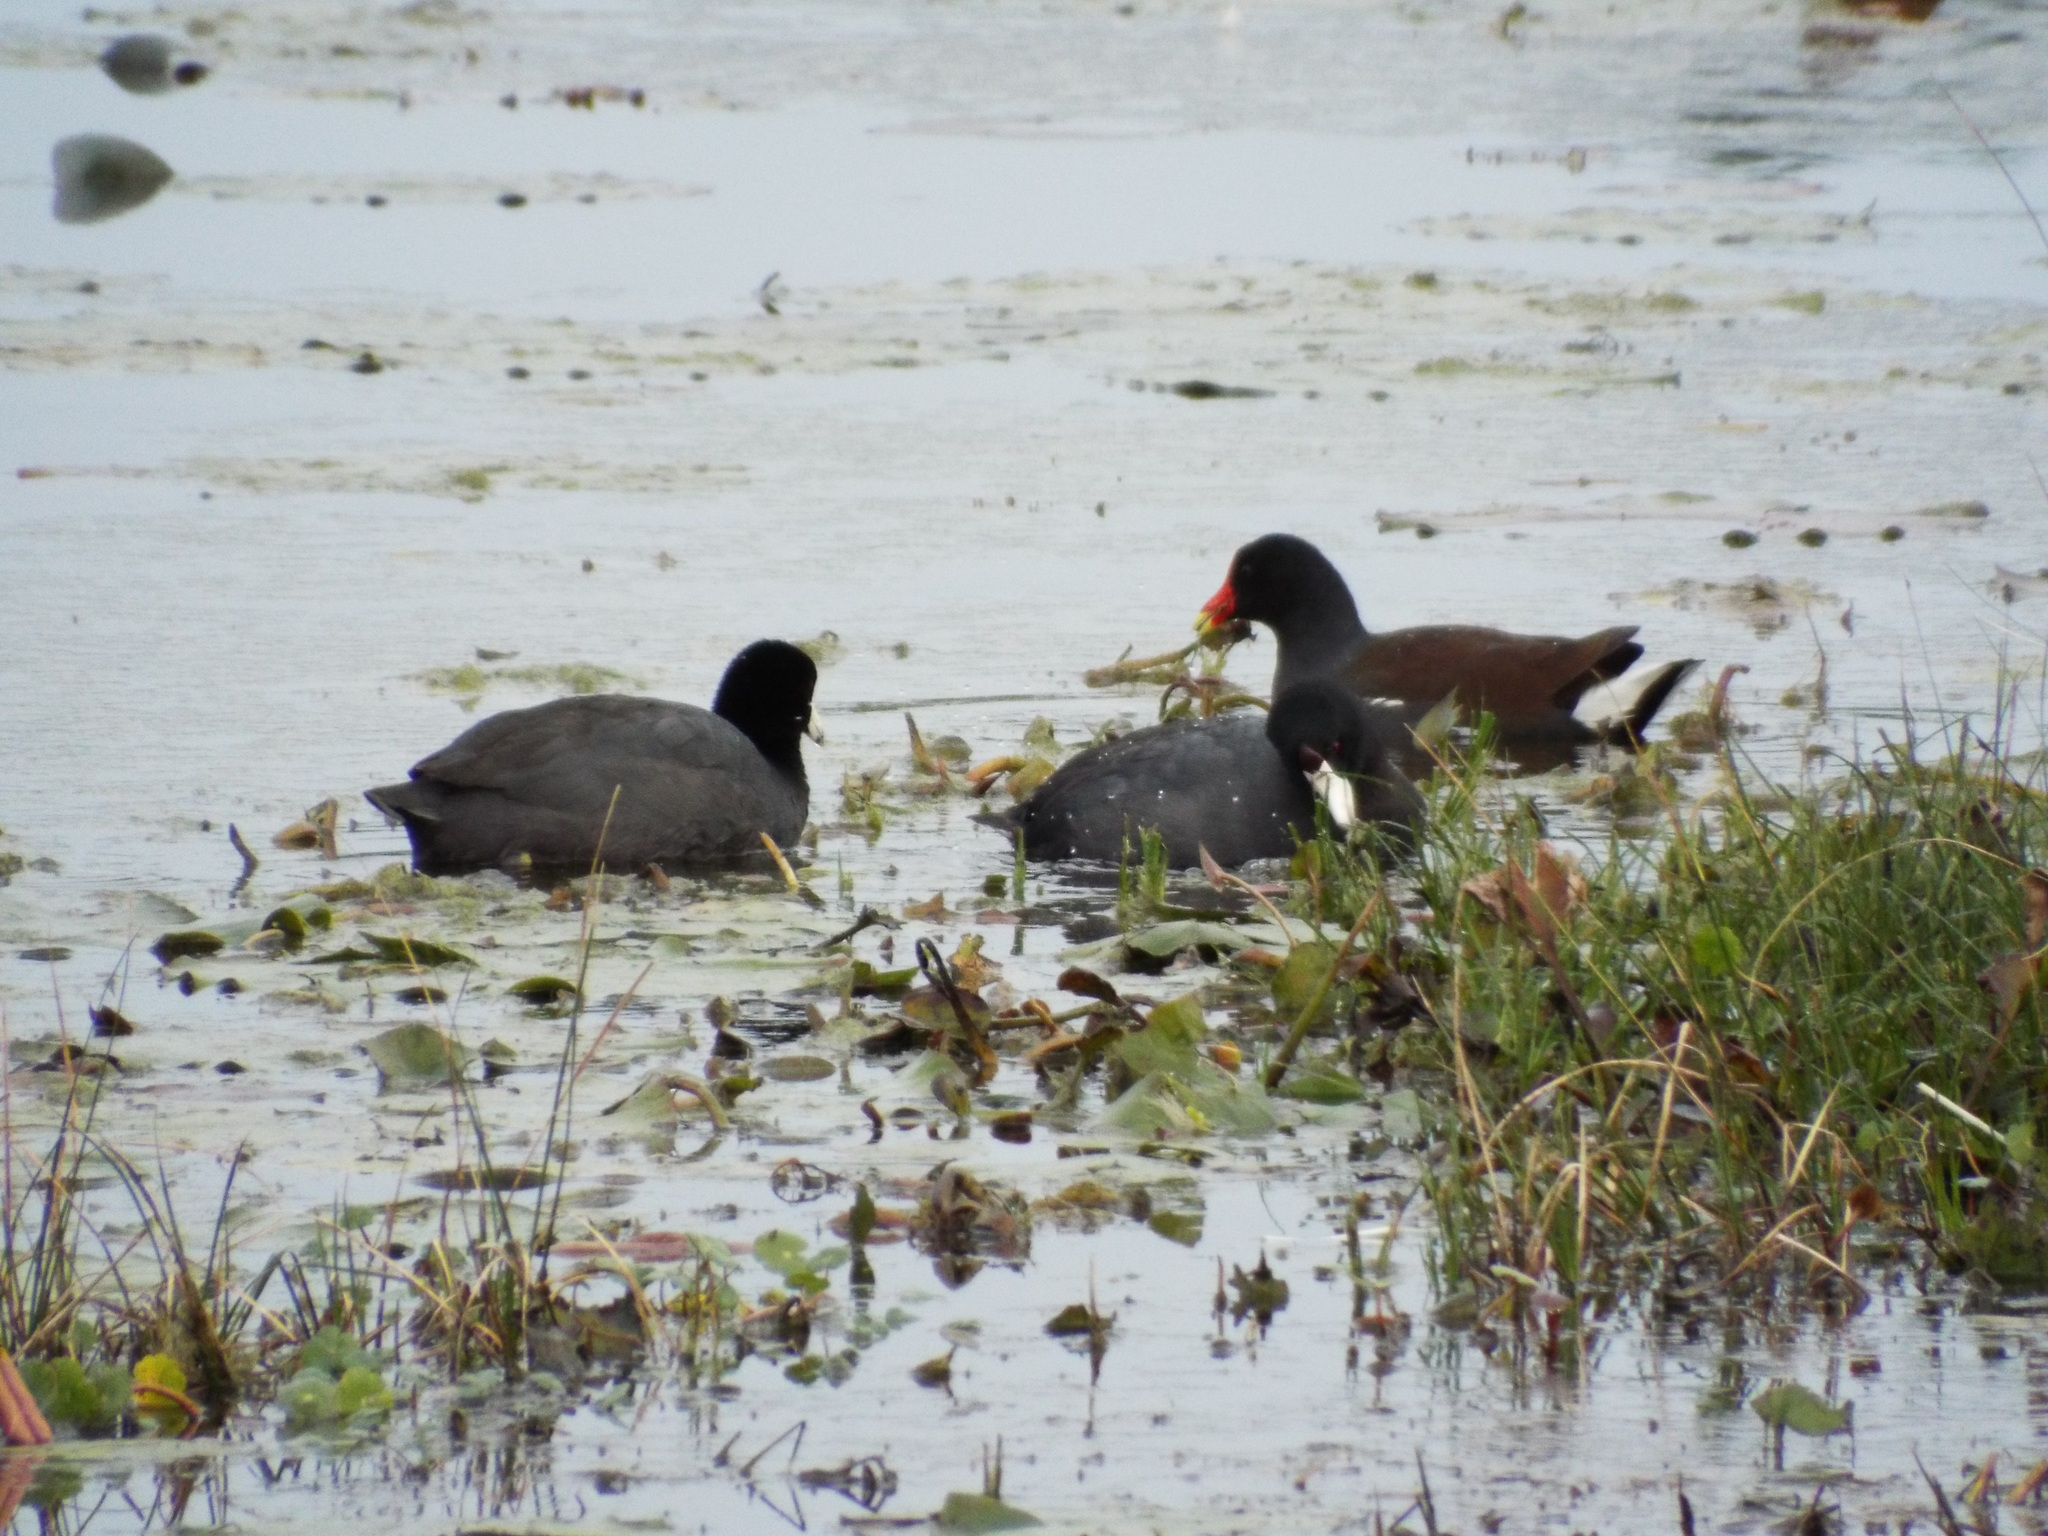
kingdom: Animalia
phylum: Chordata
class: Aves
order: Gruiformes
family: Rallidae
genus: Fulica
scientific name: Fulica americana
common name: American coot
